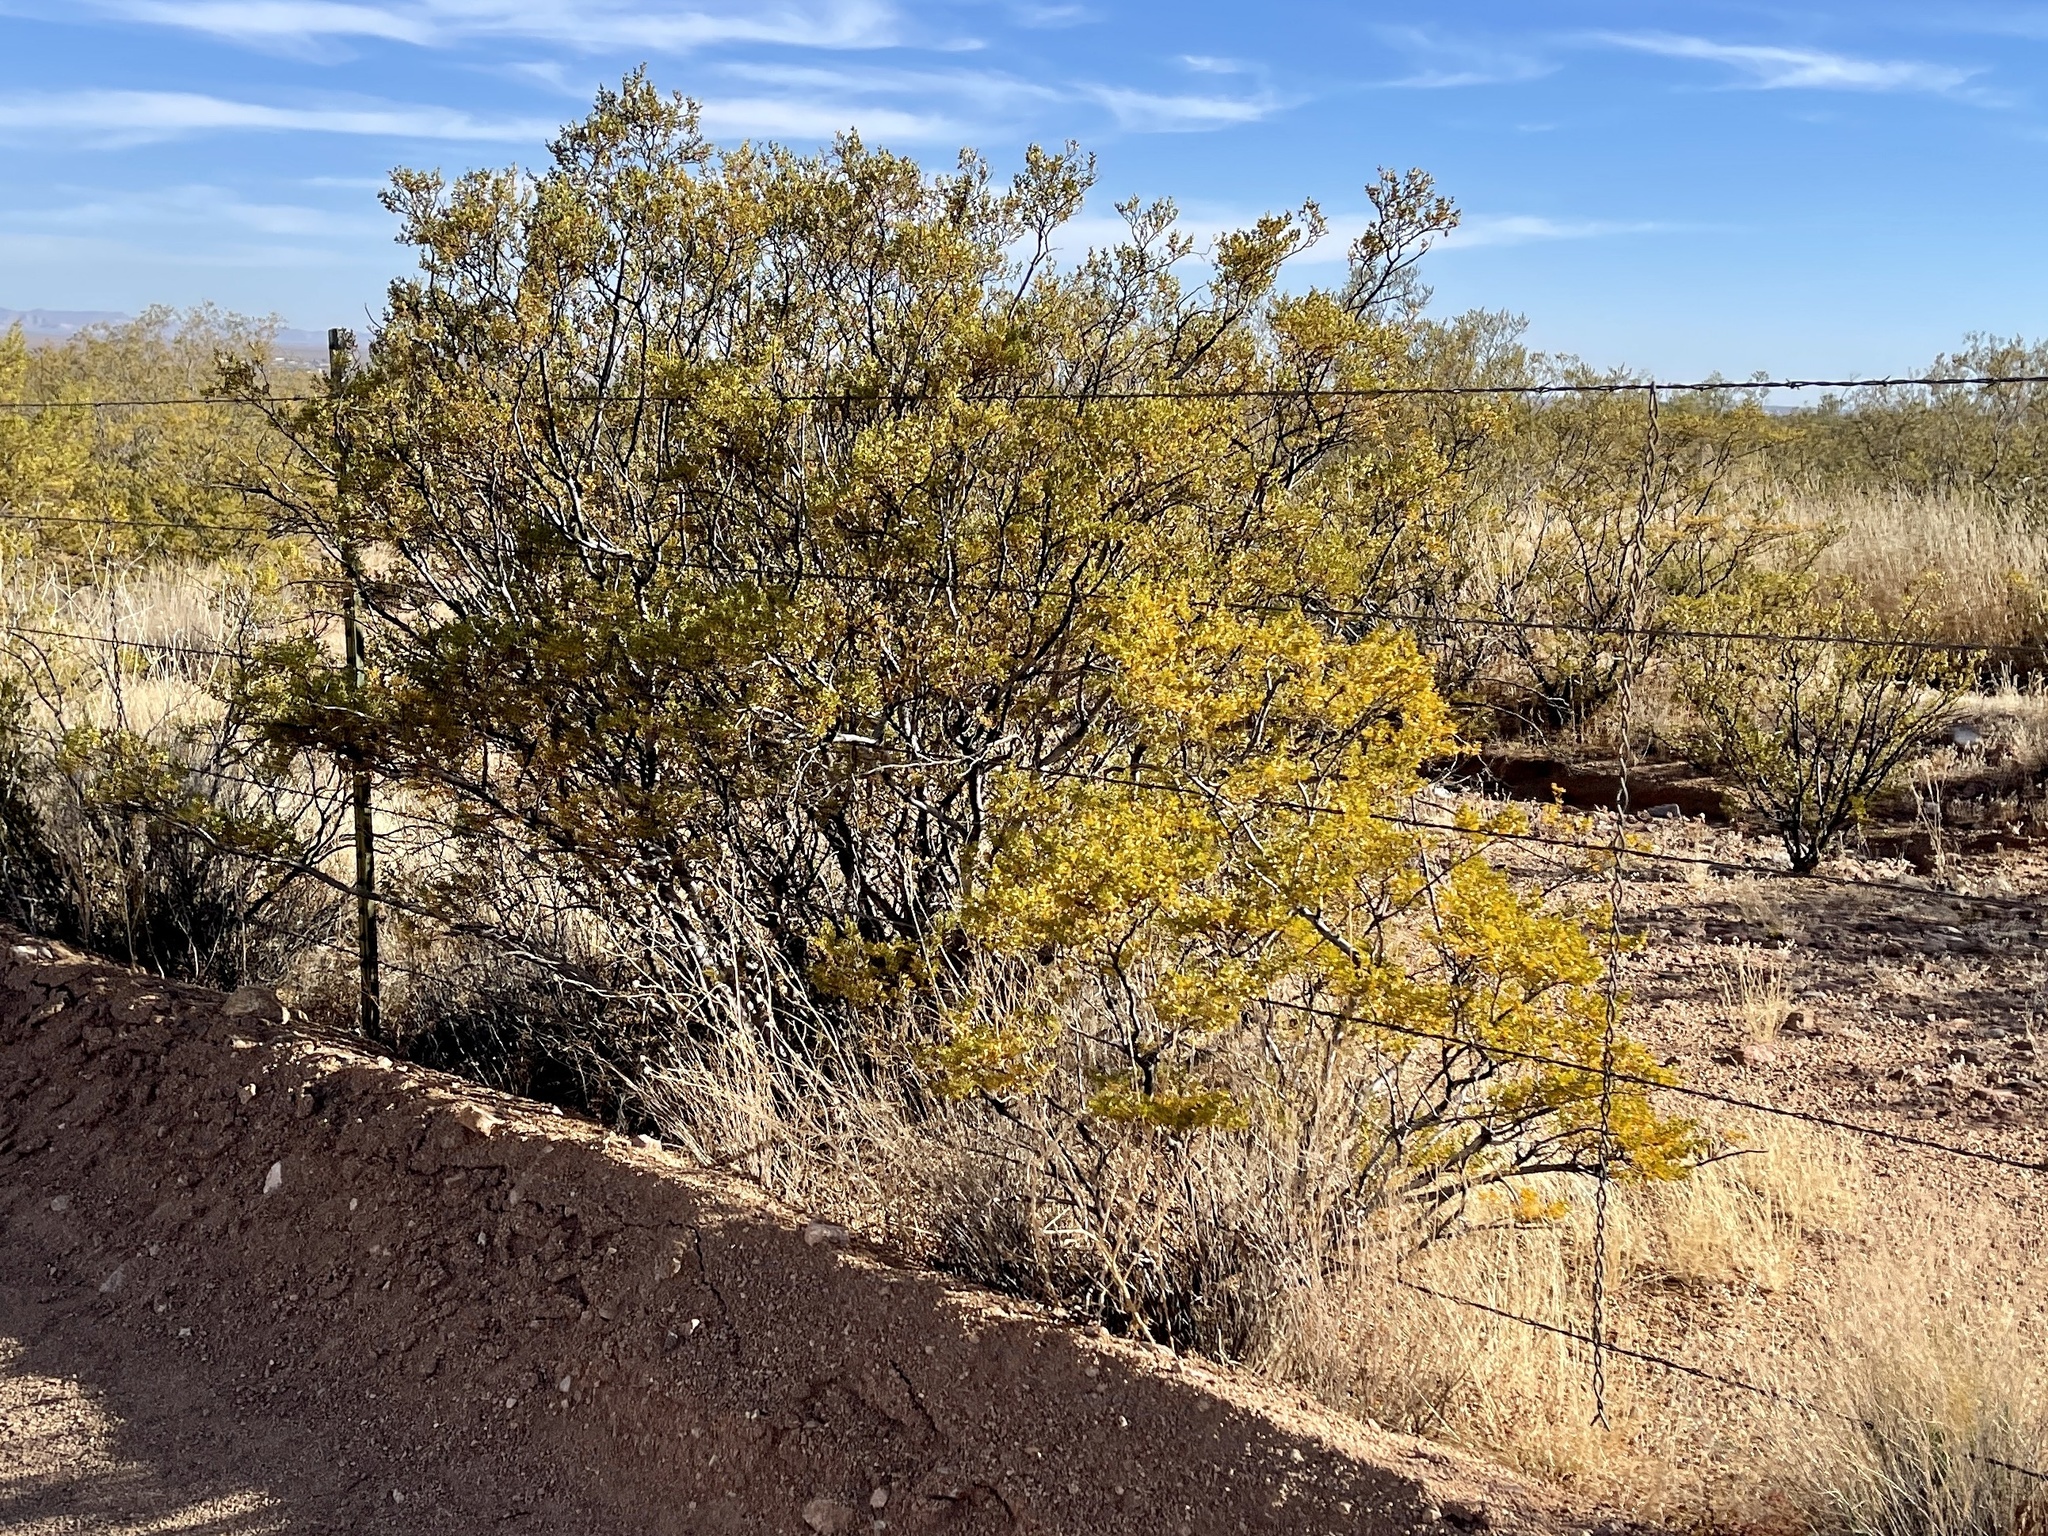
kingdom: Plantae
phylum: Tracheophyta
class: Magnoliopsida
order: Zygophyllales
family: Zygophyllaceae
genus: Larrea
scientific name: Larrea tridentata
